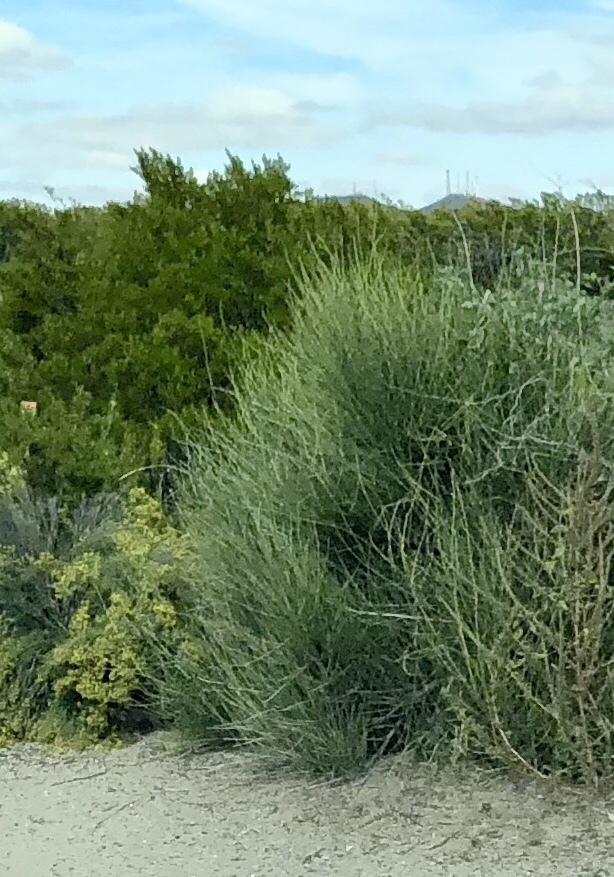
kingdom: Plantae
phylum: Tracheophyta
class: Gnetopsida
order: Ephedrales
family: Ephedraceae
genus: Ephedra
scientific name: Ephedra trifurca
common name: Mexican-tea
